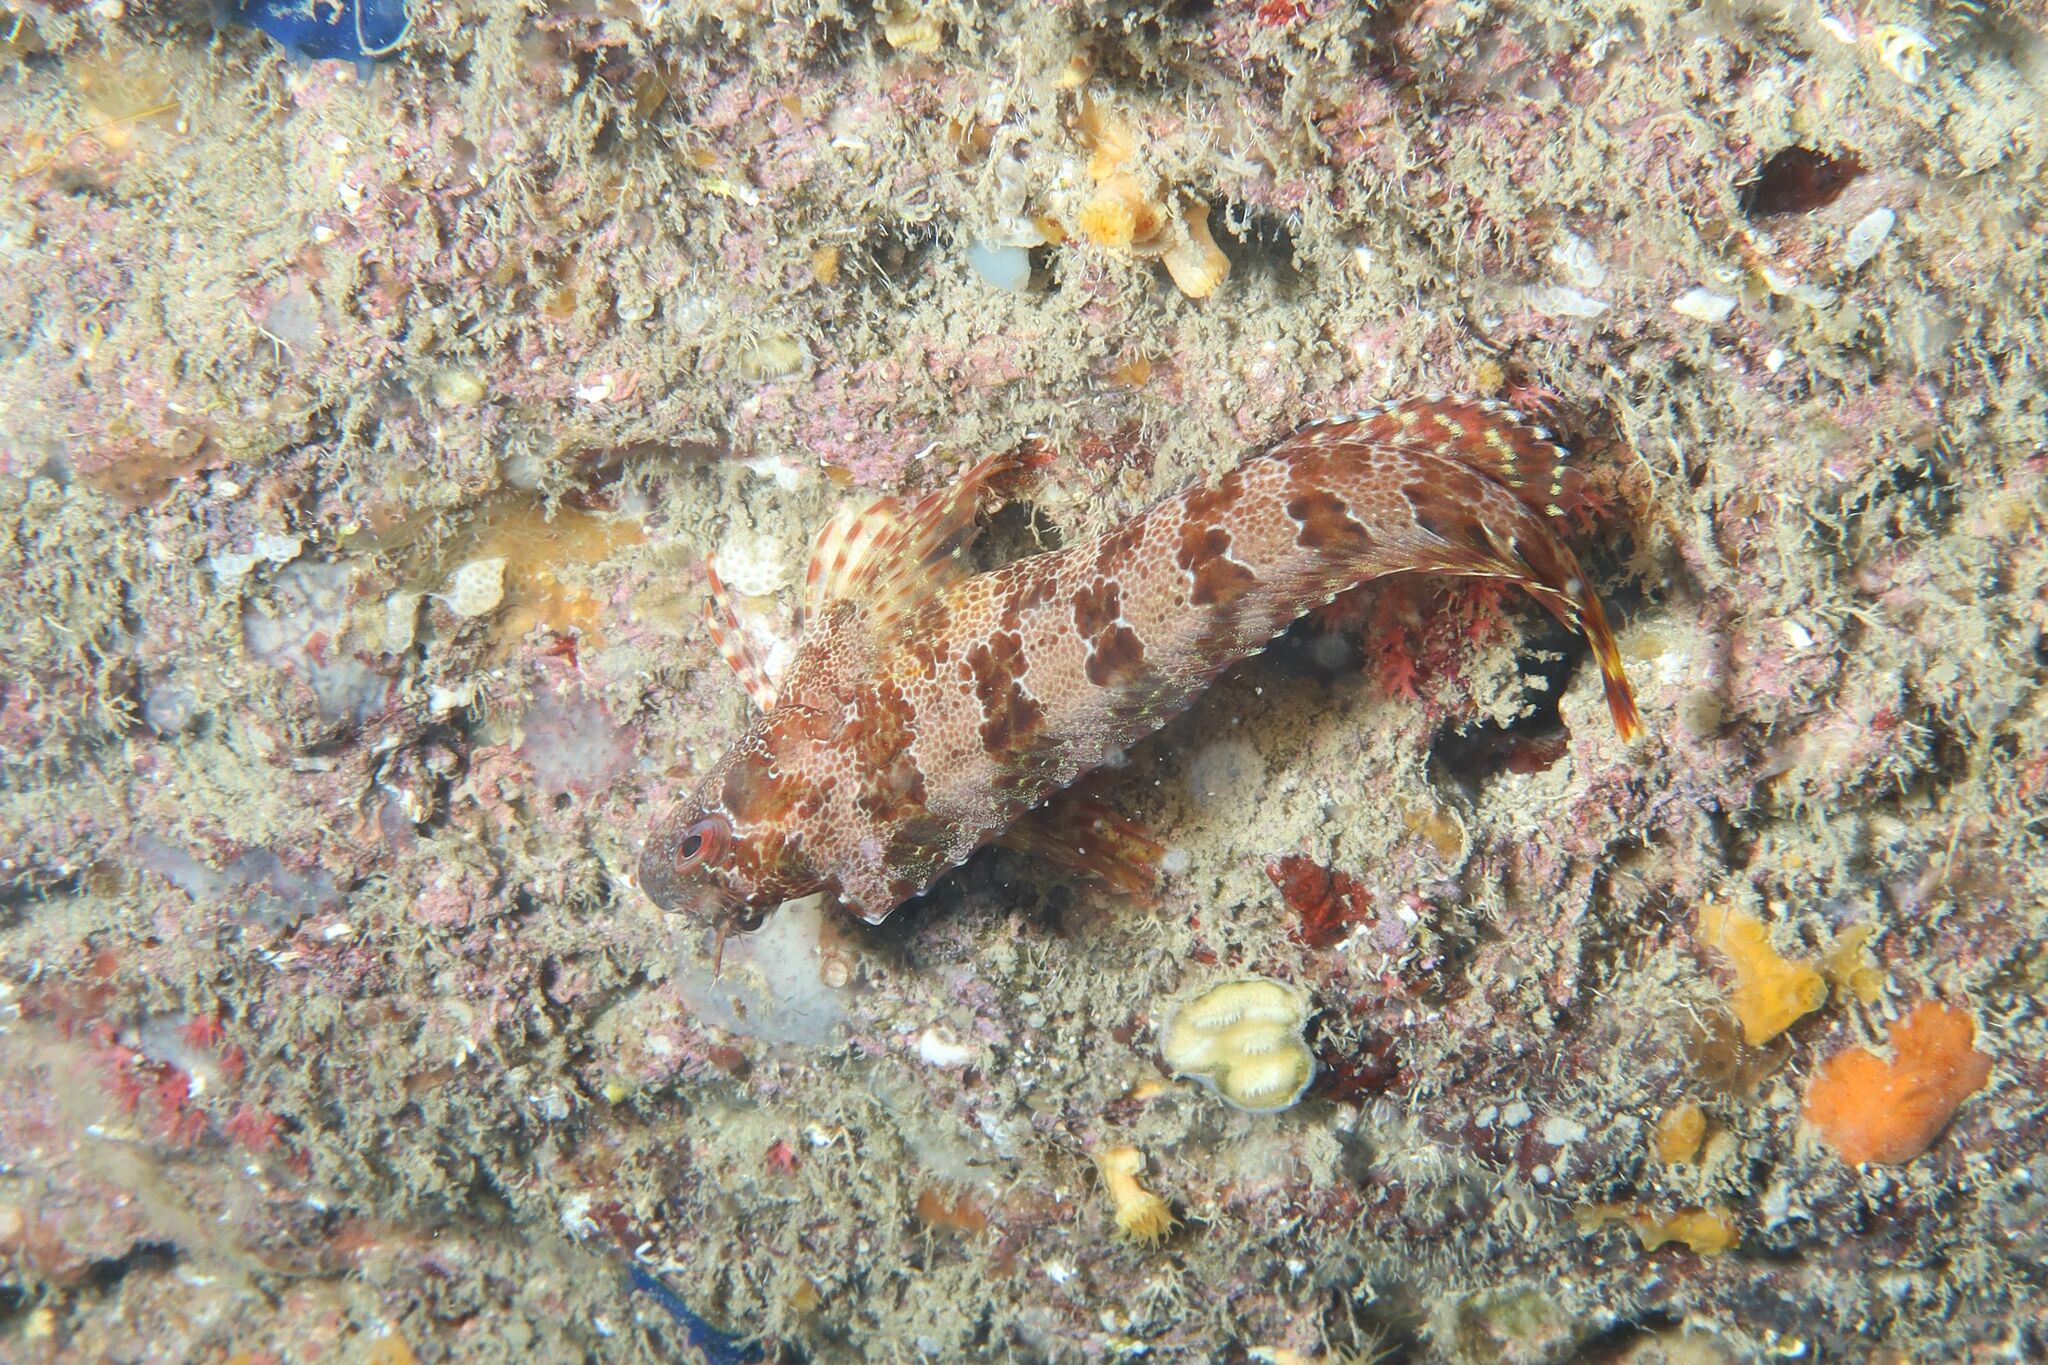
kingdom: Animalia
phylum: Chordata
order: Perciformes
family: Blenniidae
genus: Parablennius
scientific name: Parablennius gattorugine
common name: Tompot blenny
